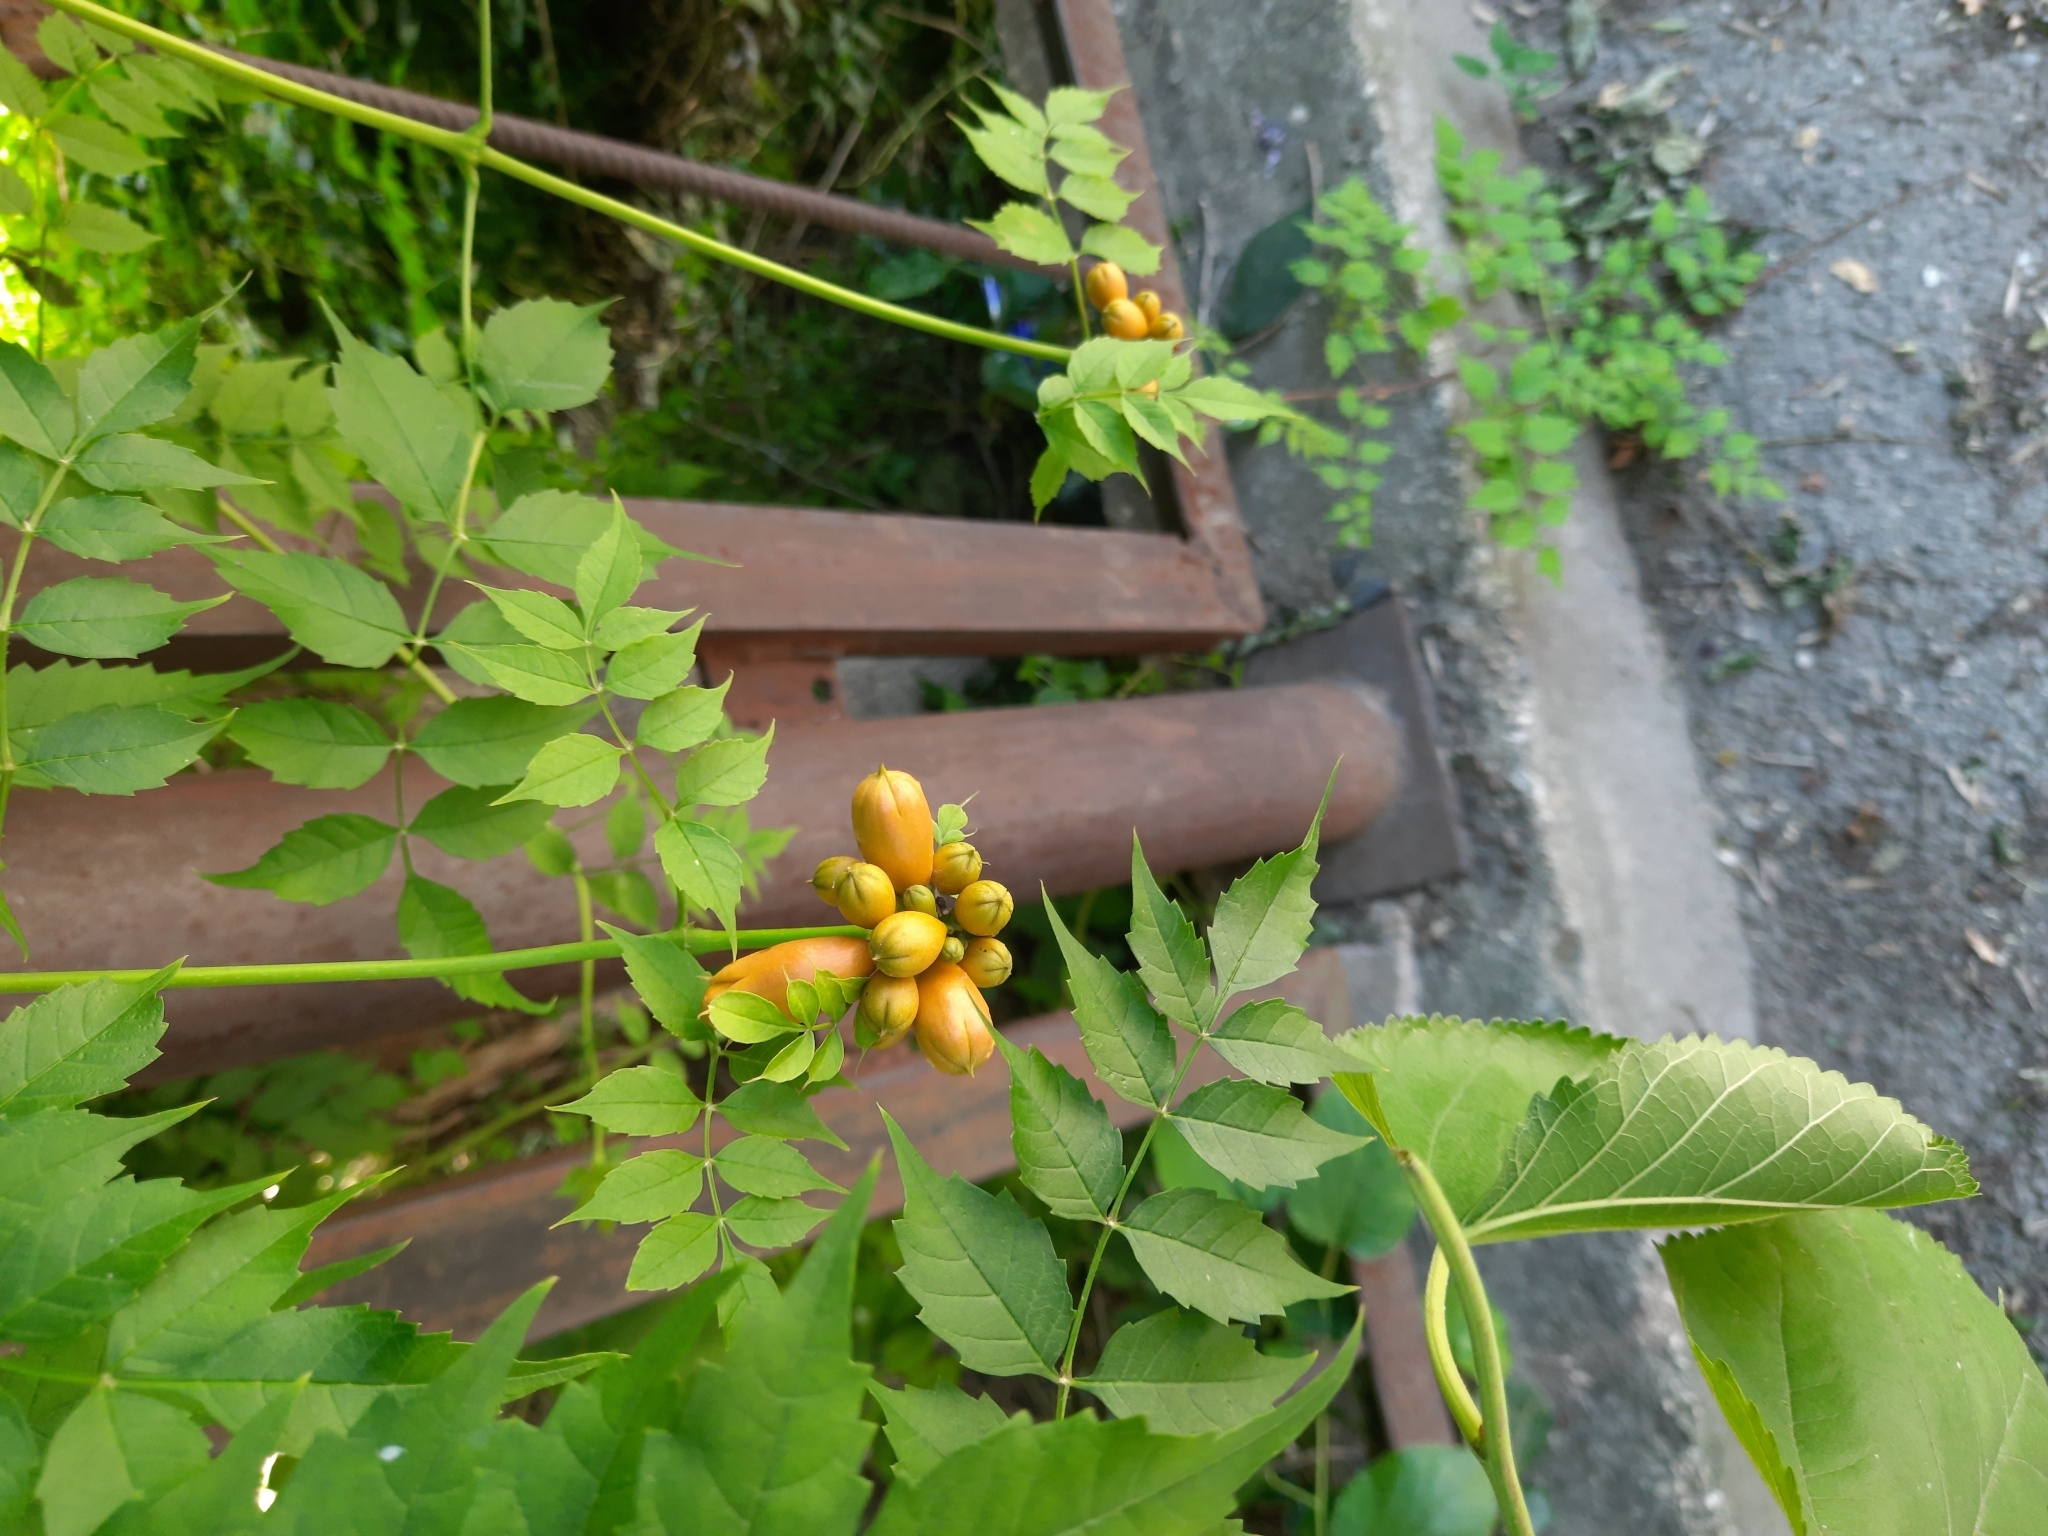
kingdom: Plantae
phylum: Tracheophyta
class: Magnoliopsida
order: Lamiales
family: Bignoniaceae
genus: Campsis
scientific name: Campsis radicans
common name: Trumpet-creeper
